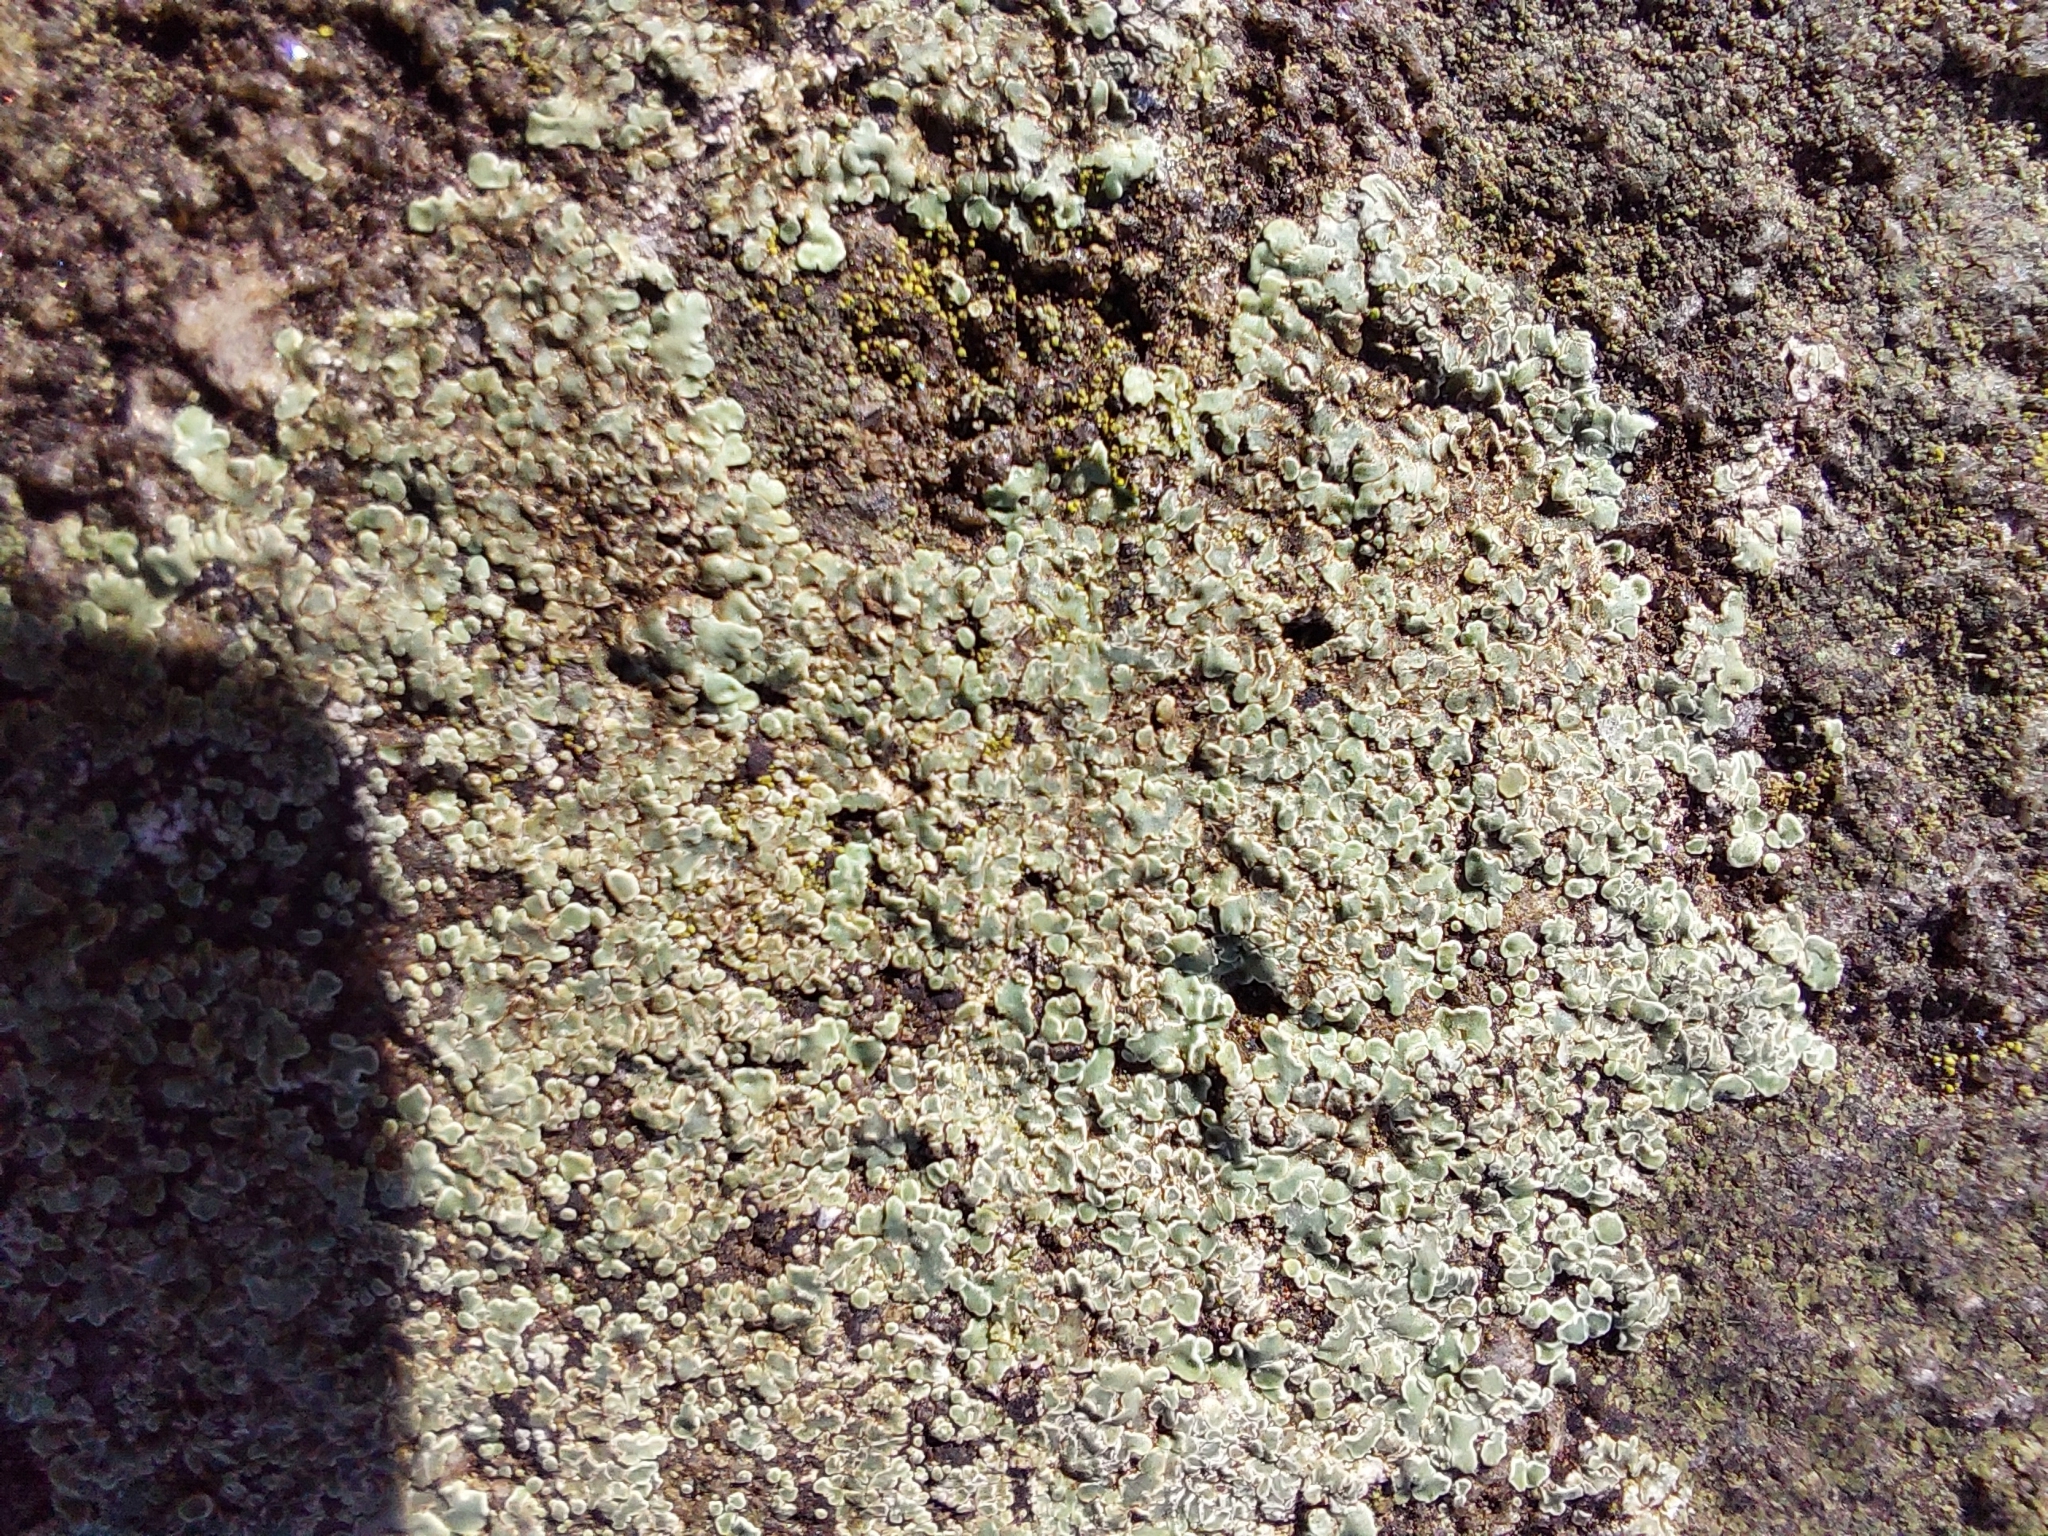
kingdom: Fungi
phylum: Ascomycota
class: Lecanoromycetes
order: Lecanorales
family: Lecanoraceae
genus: Protoparmeliopsis
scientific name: Protoparmeliopsis muralis
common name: Stonewall rim lichen
